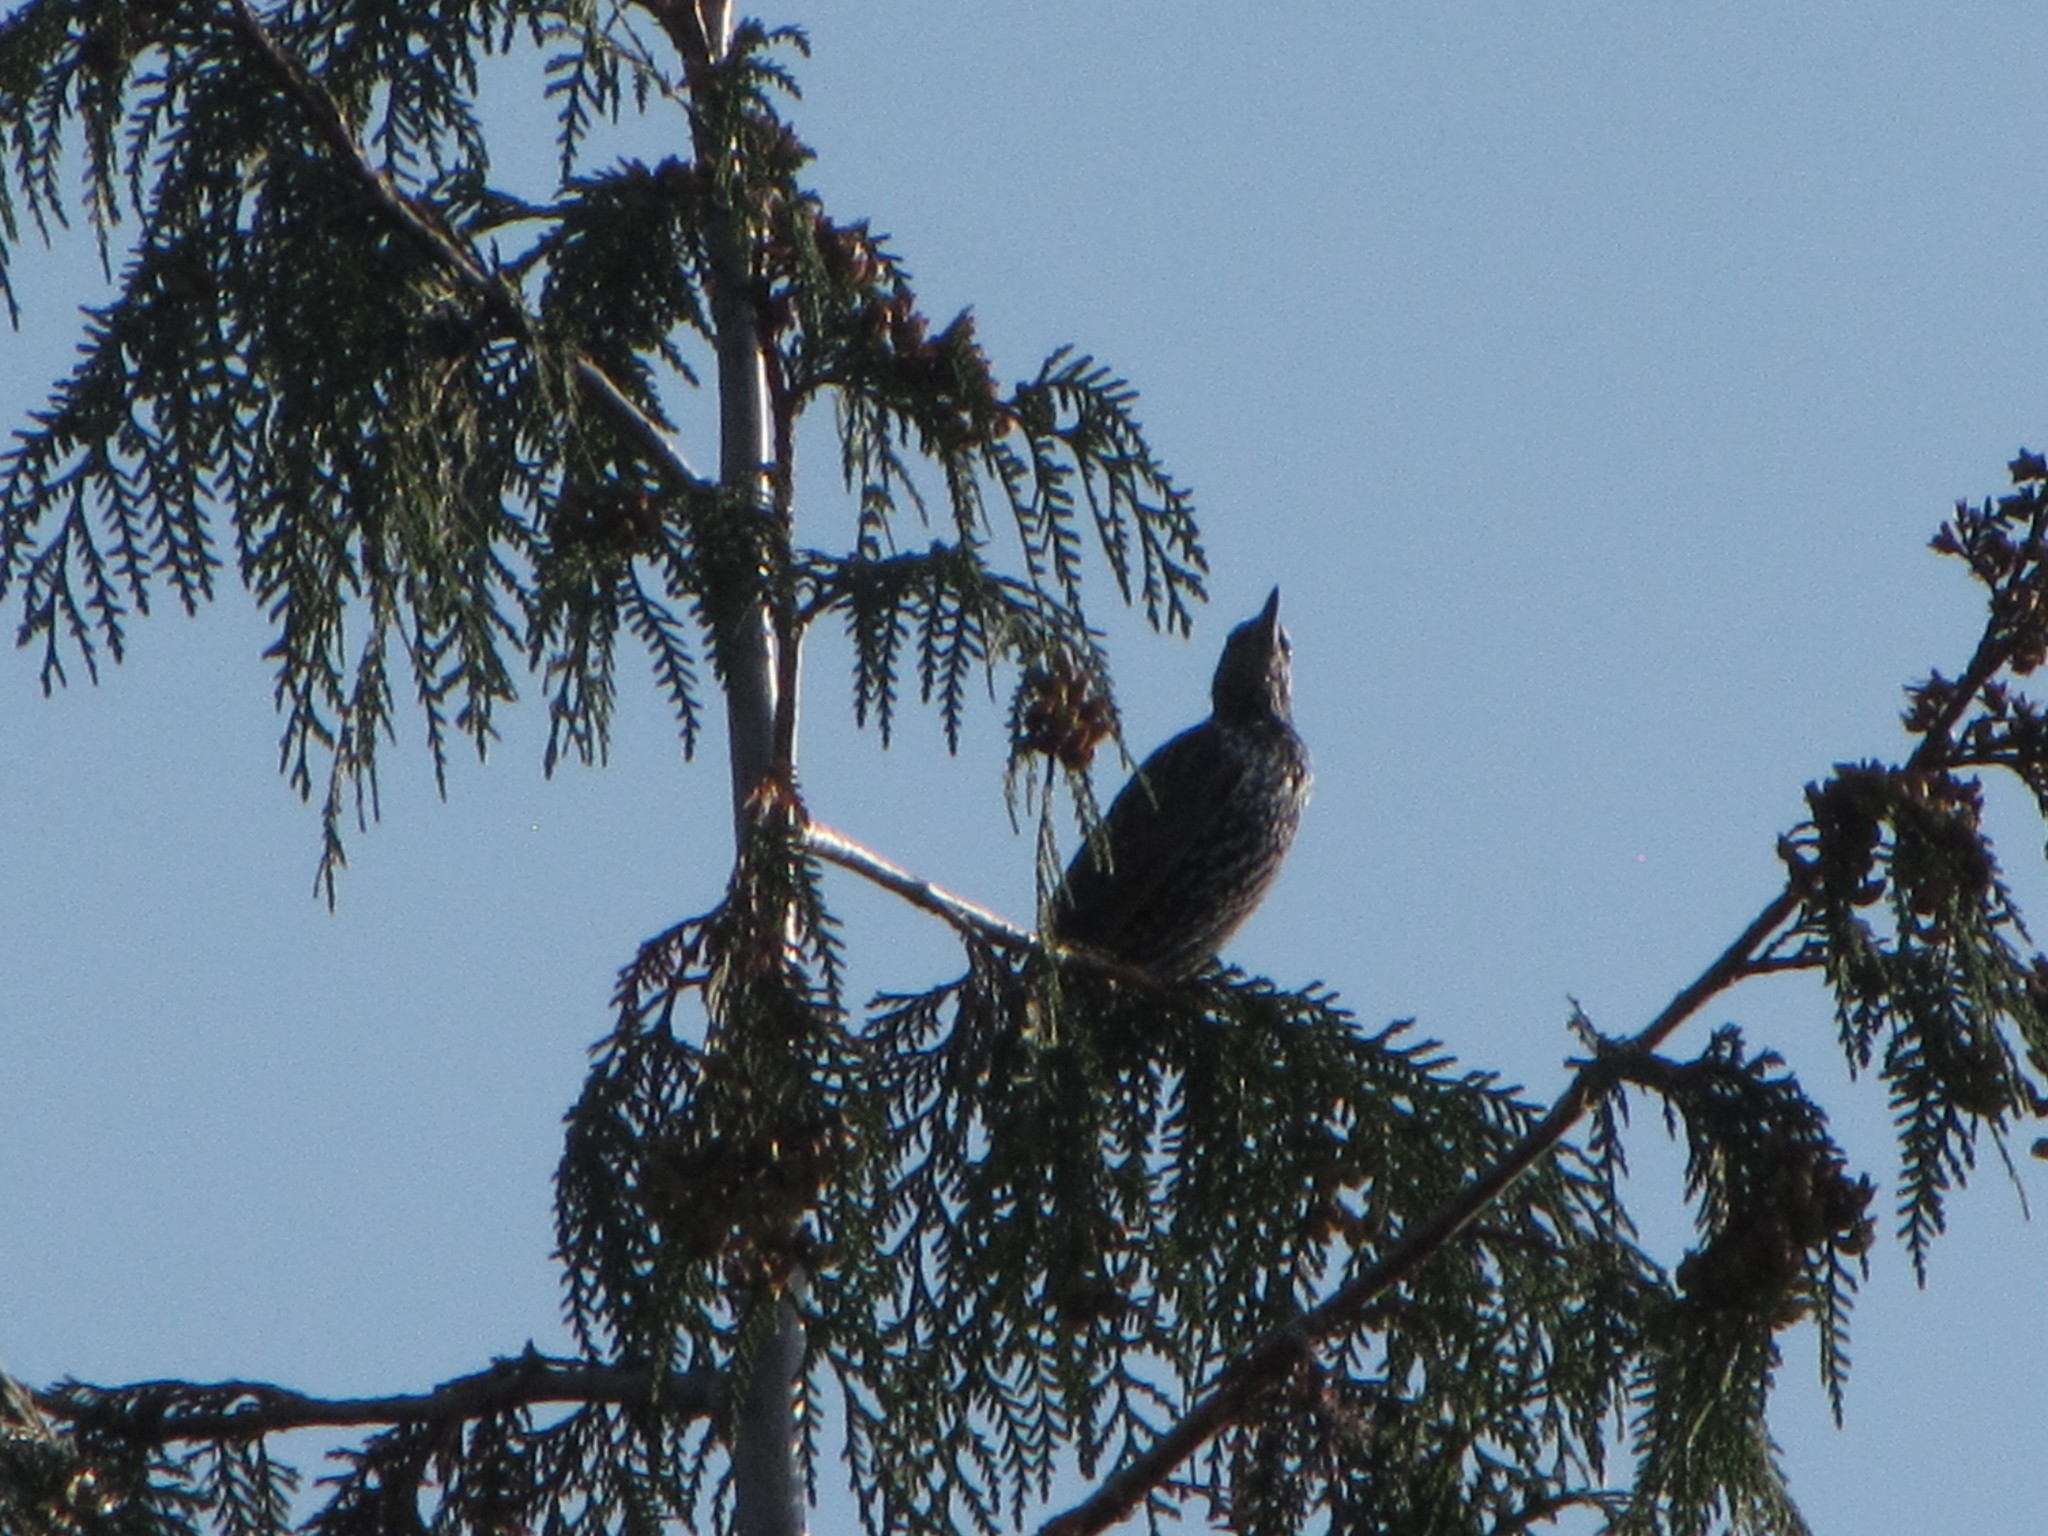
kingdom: Animalia
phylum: Chordata
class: Aves
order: Passeriformes
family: Sturnidae
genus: Sturnus
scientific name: Sturnus vulgaris
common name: Common starling
